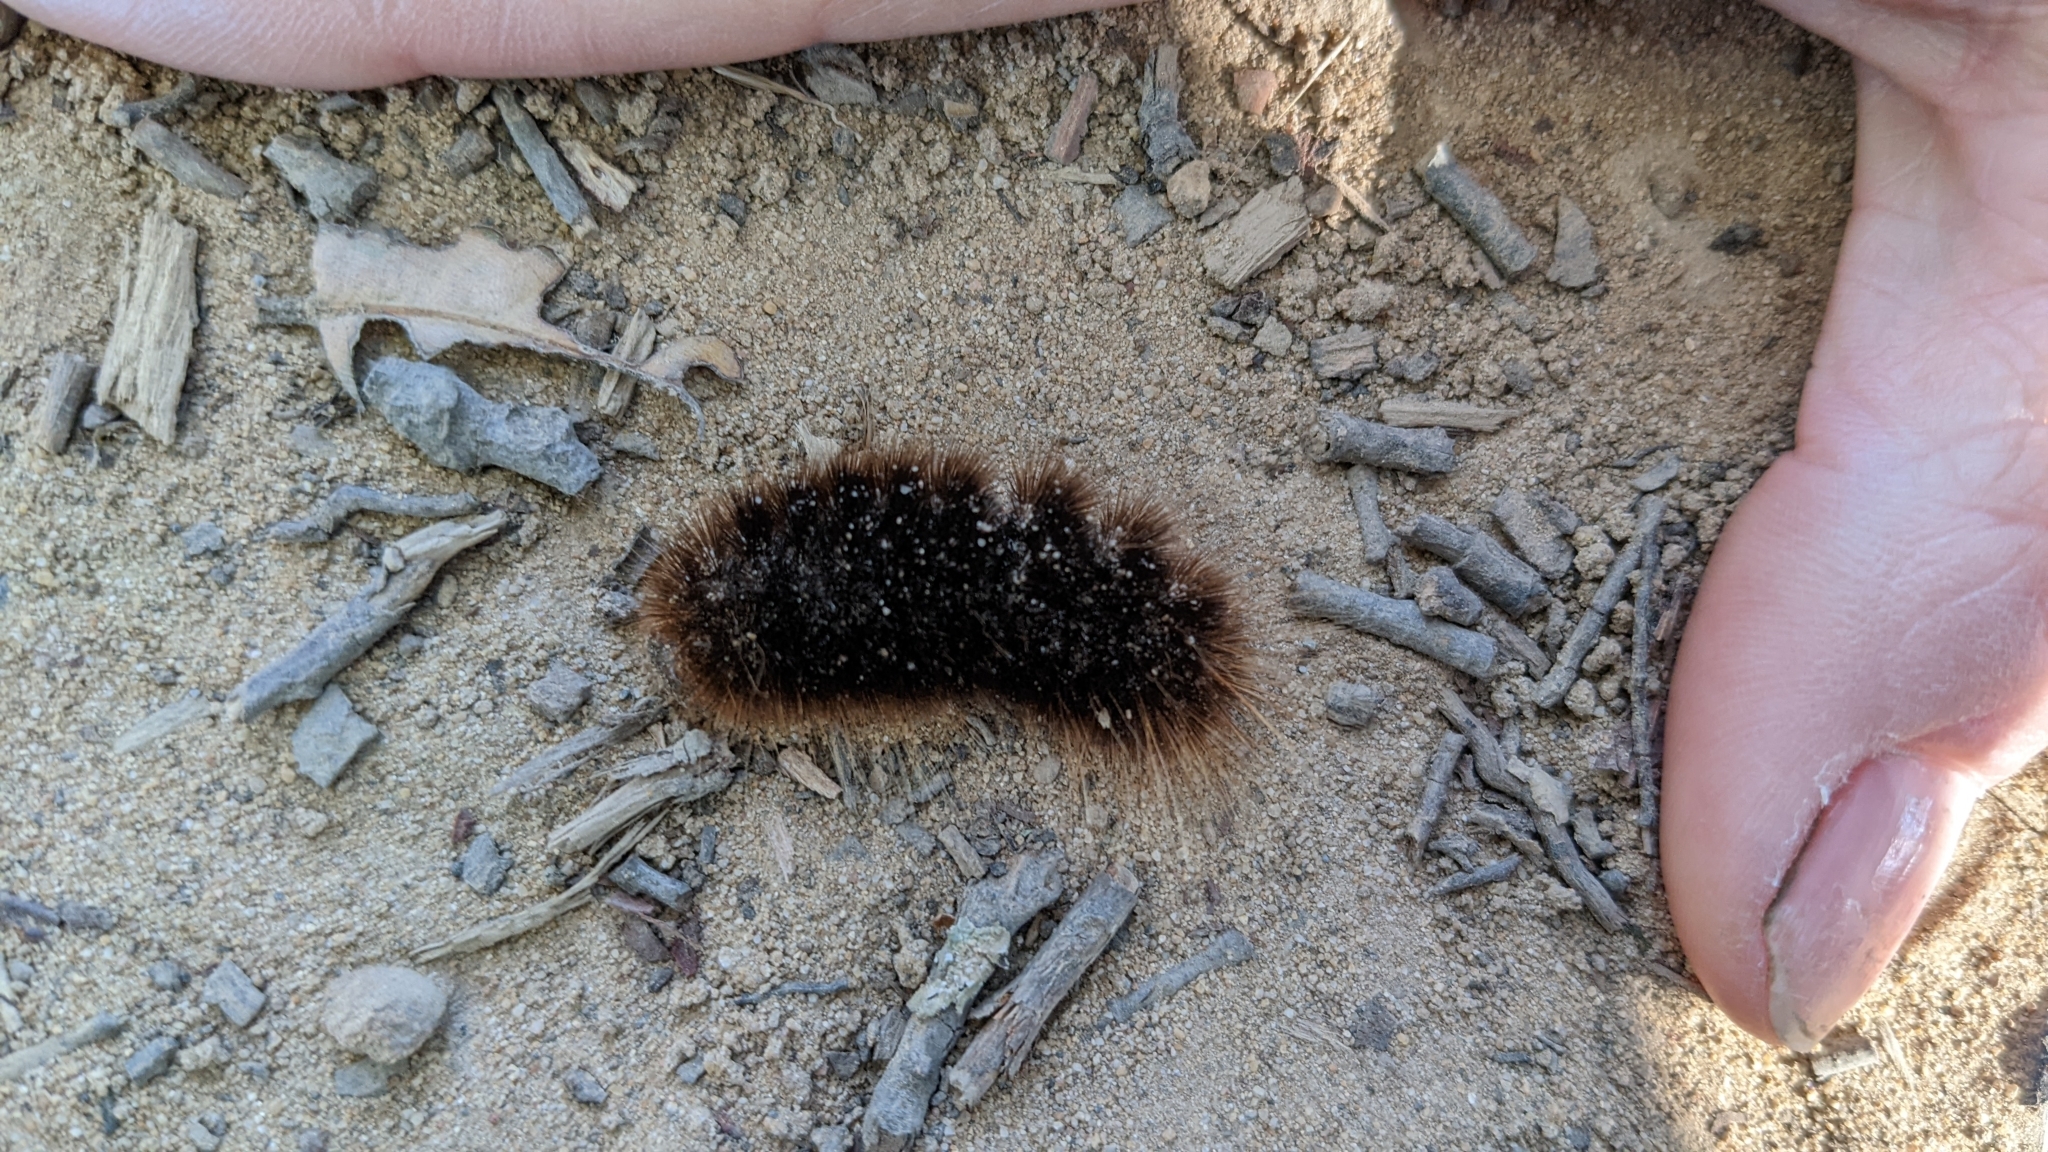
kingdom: Animalia
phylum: Arthropoda
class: Insecta
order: Lepidoptera
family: Erebidae
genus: Hemihyalea
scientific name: Hemihyalea edwardsii
